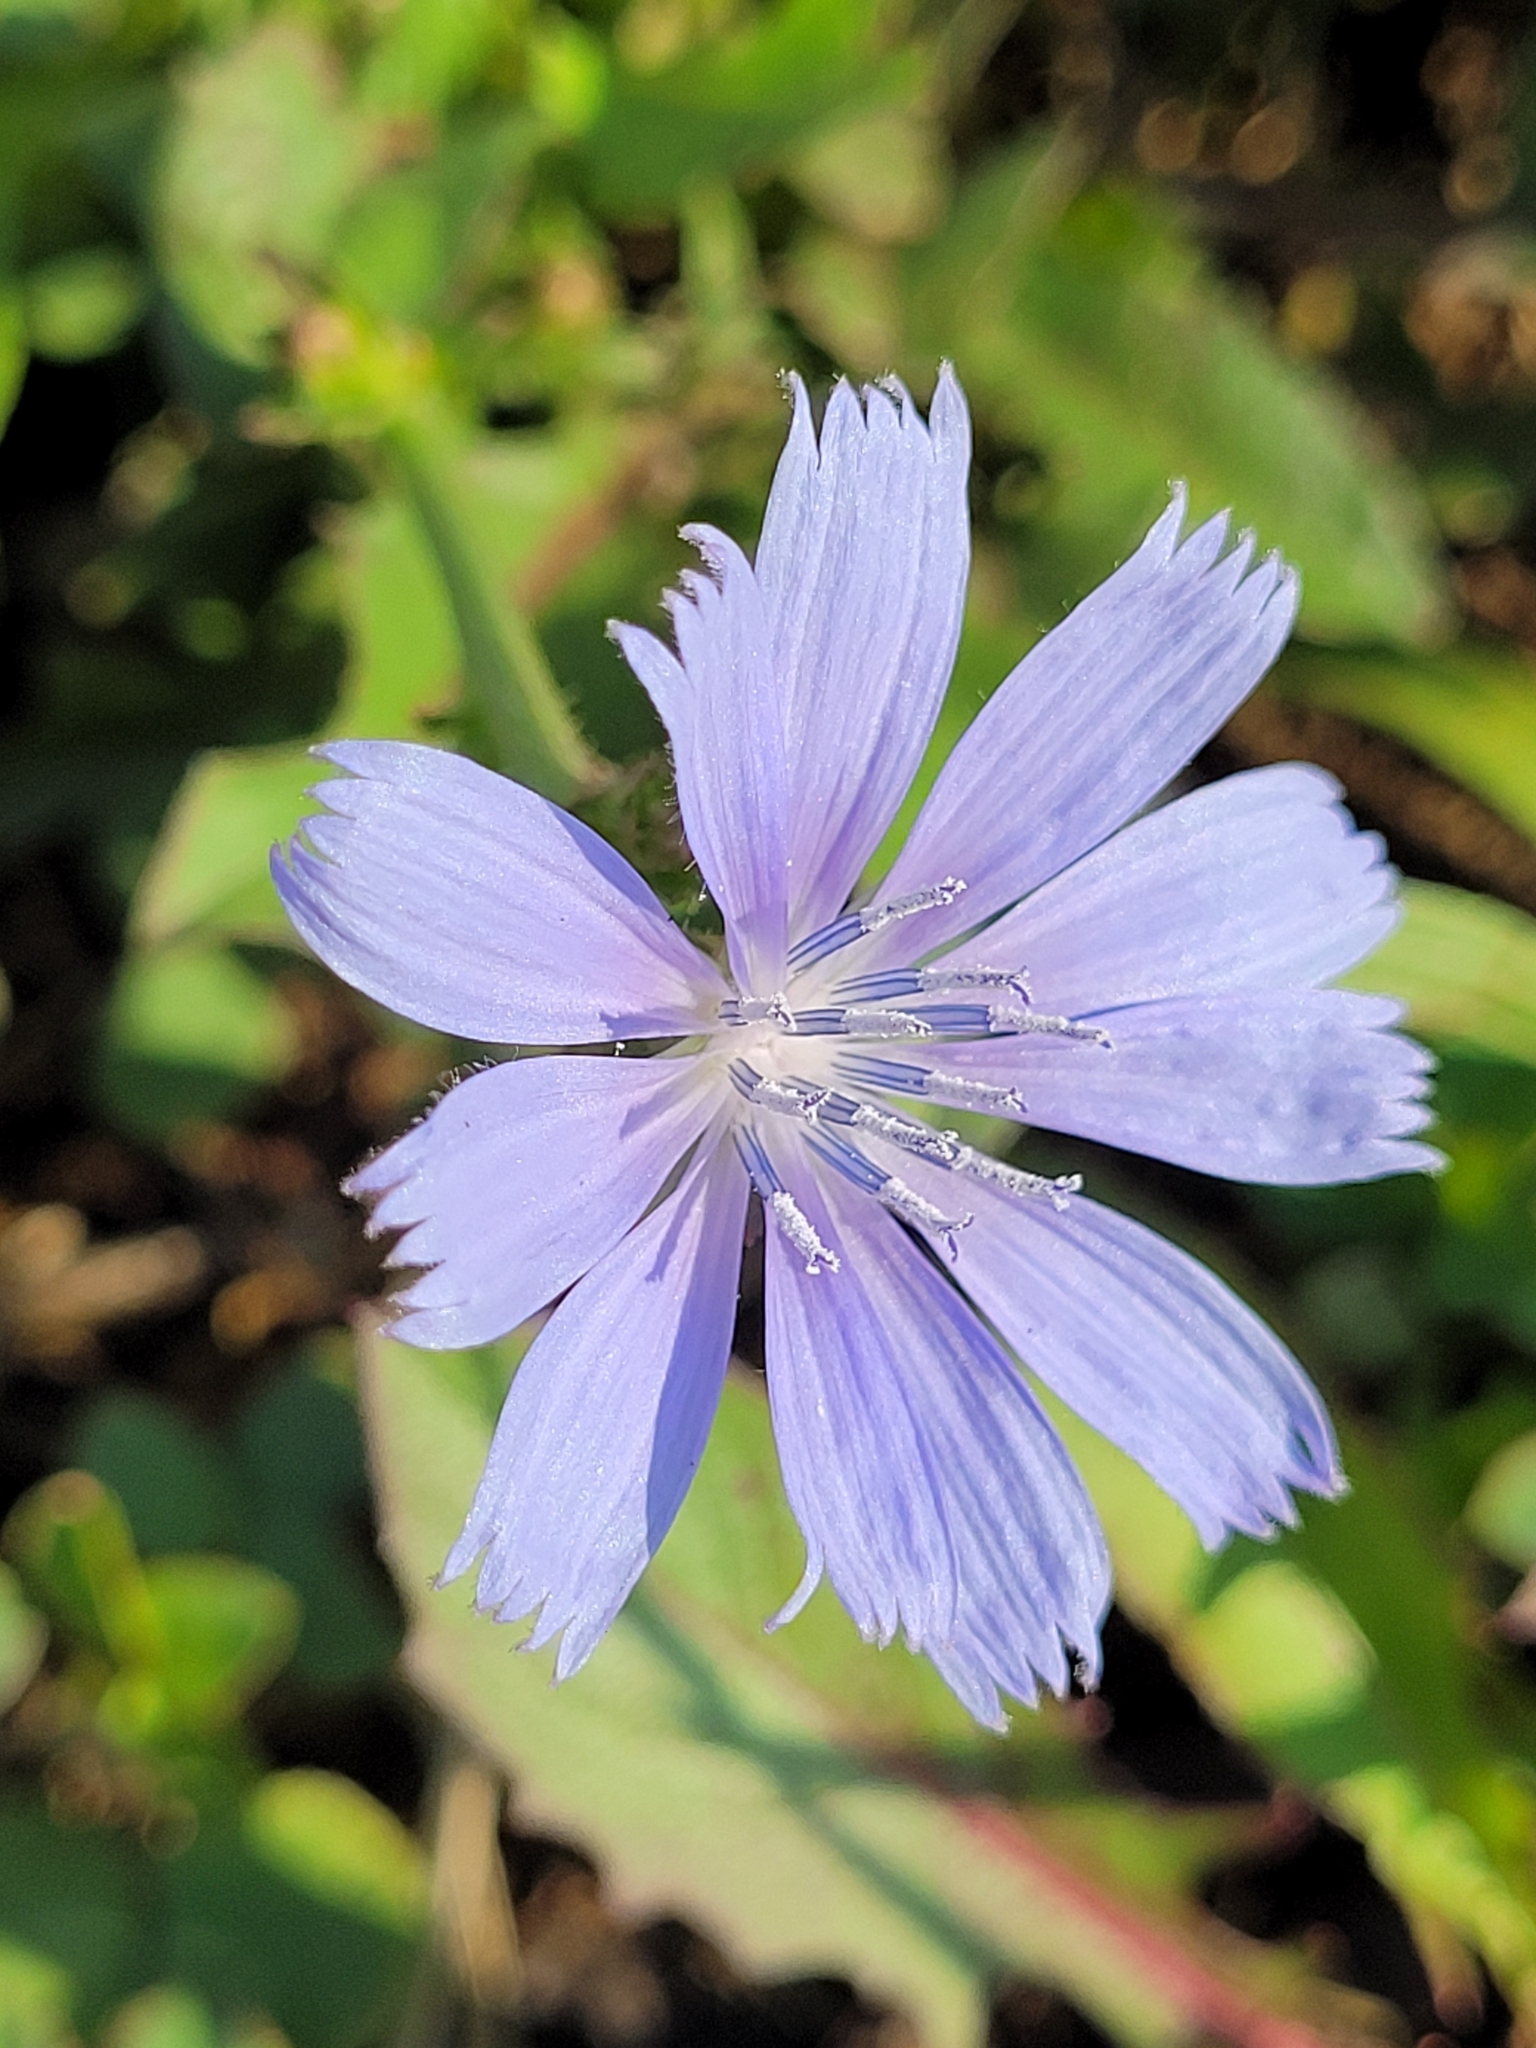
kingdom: Plantae
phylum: Tracheophyta
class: Magnoliopsida
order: Asterales
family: Asteraceae
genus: Cichorium
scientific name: Cichorium intybus
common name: Chicory
